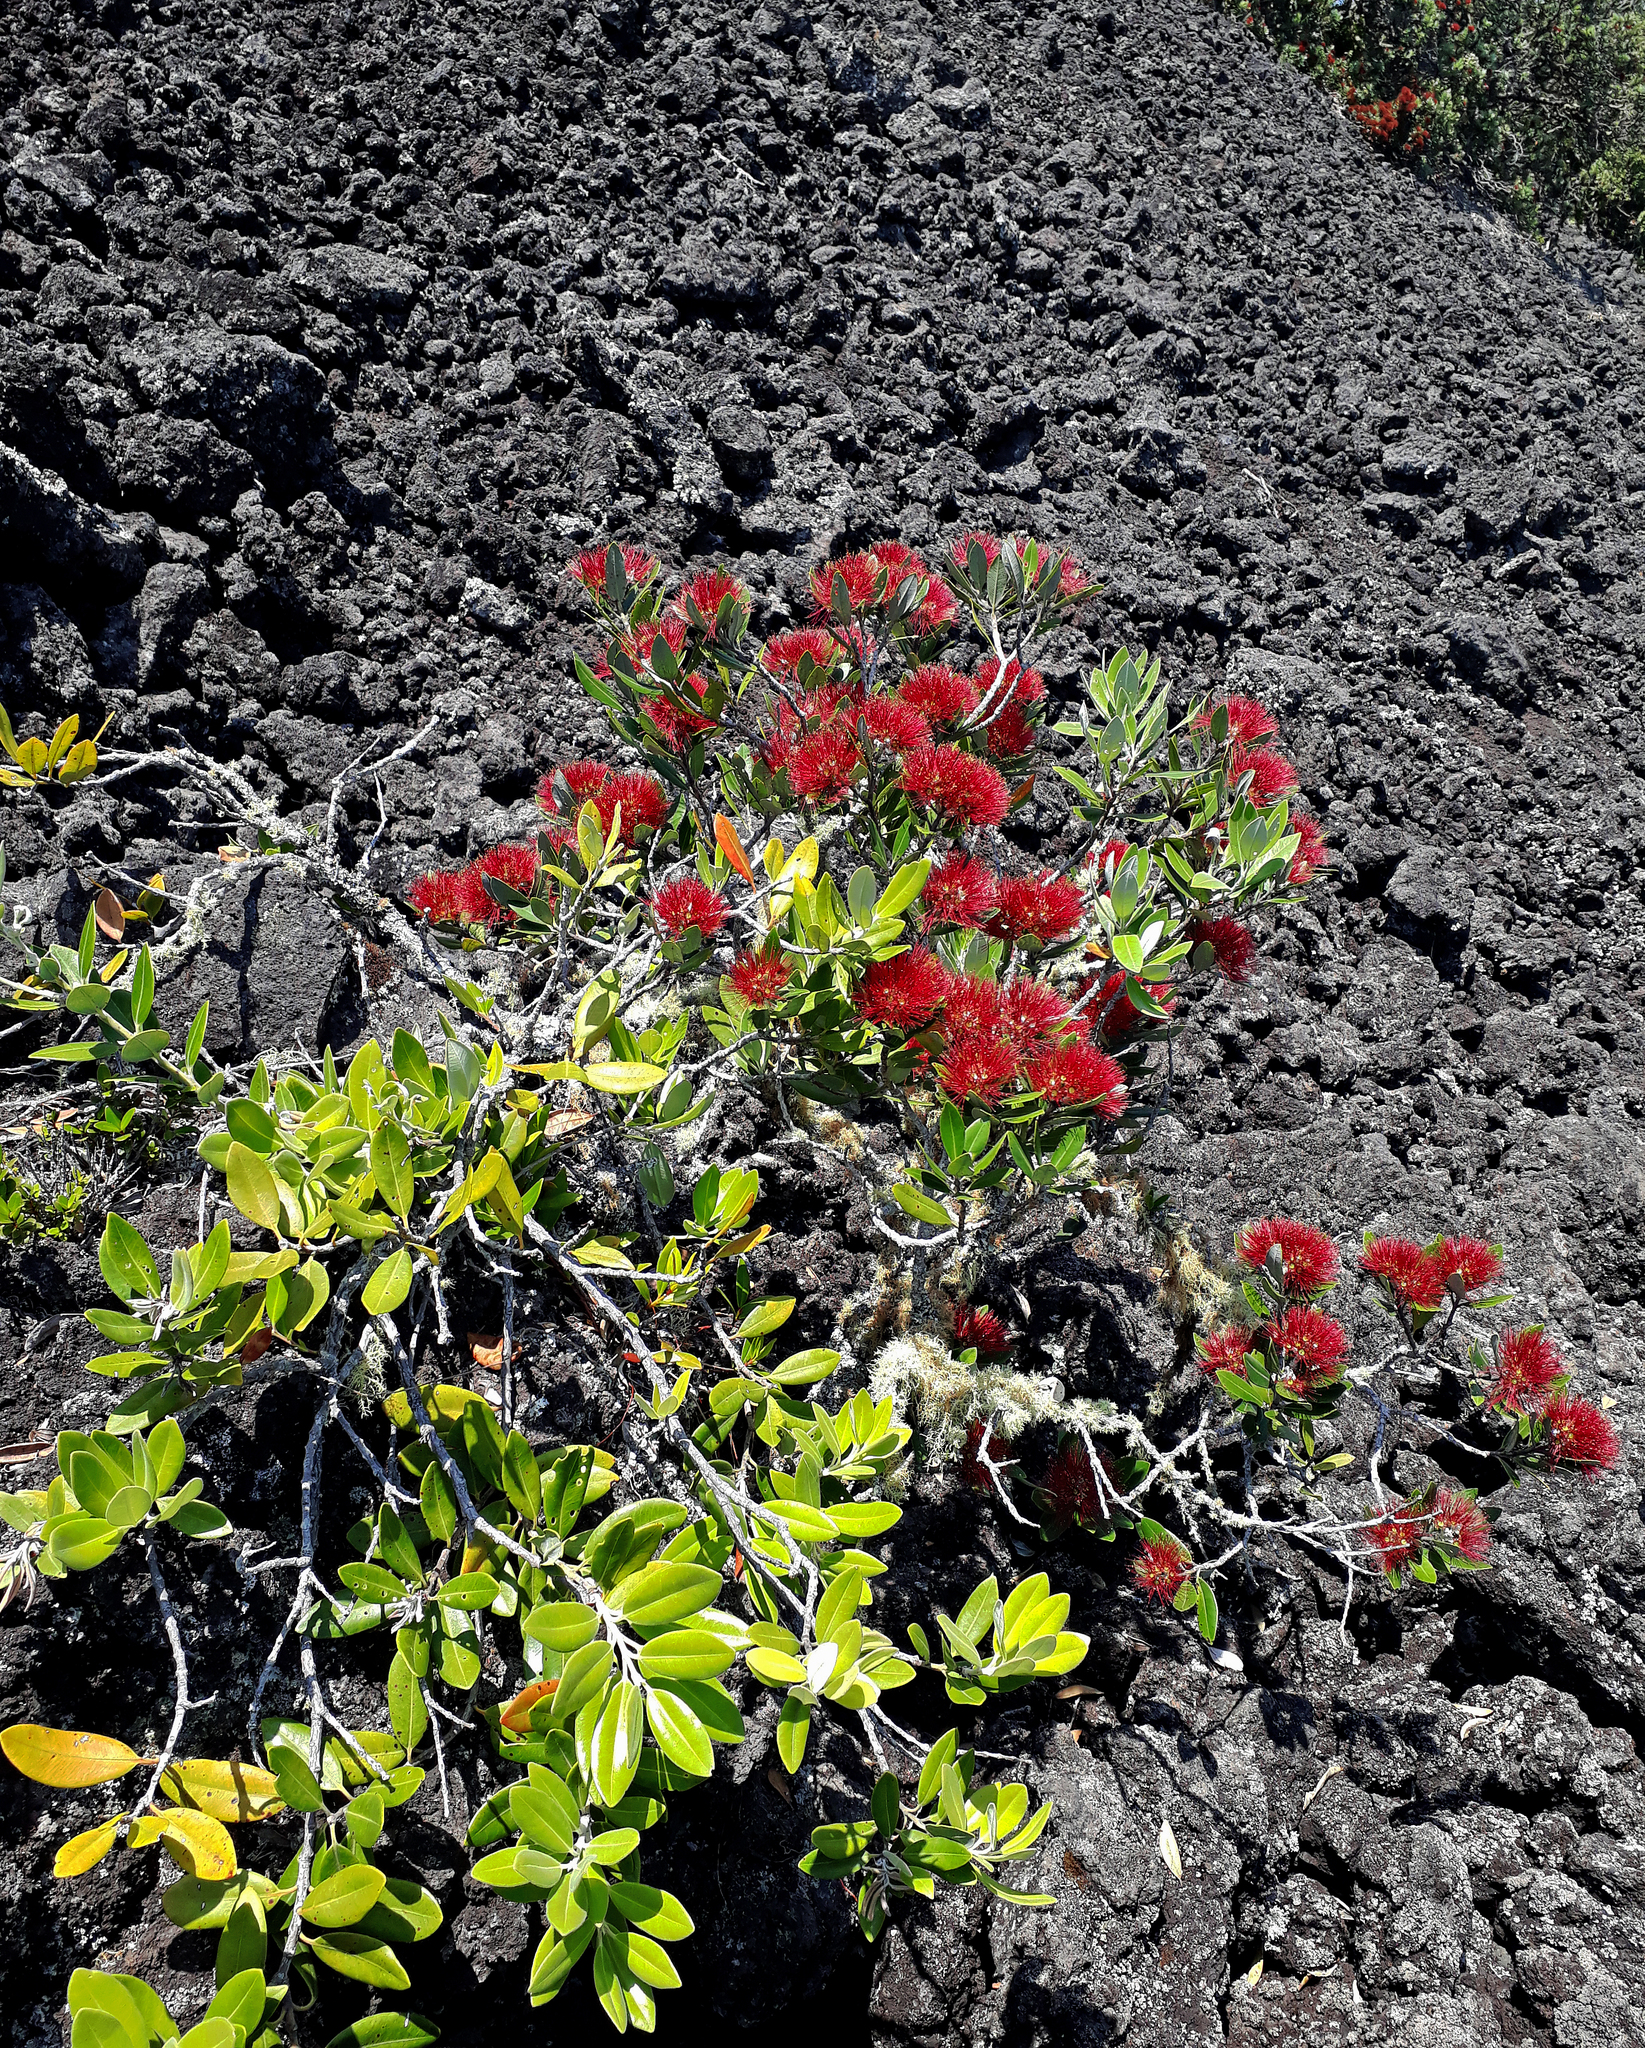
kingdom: Plantae
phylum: Tracheophyta
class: Magnoliopsida
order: Myrtales
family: Myrtaceae
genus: Metrosideros
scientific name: Metrosideros excelsa
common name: New zealand christmastree
